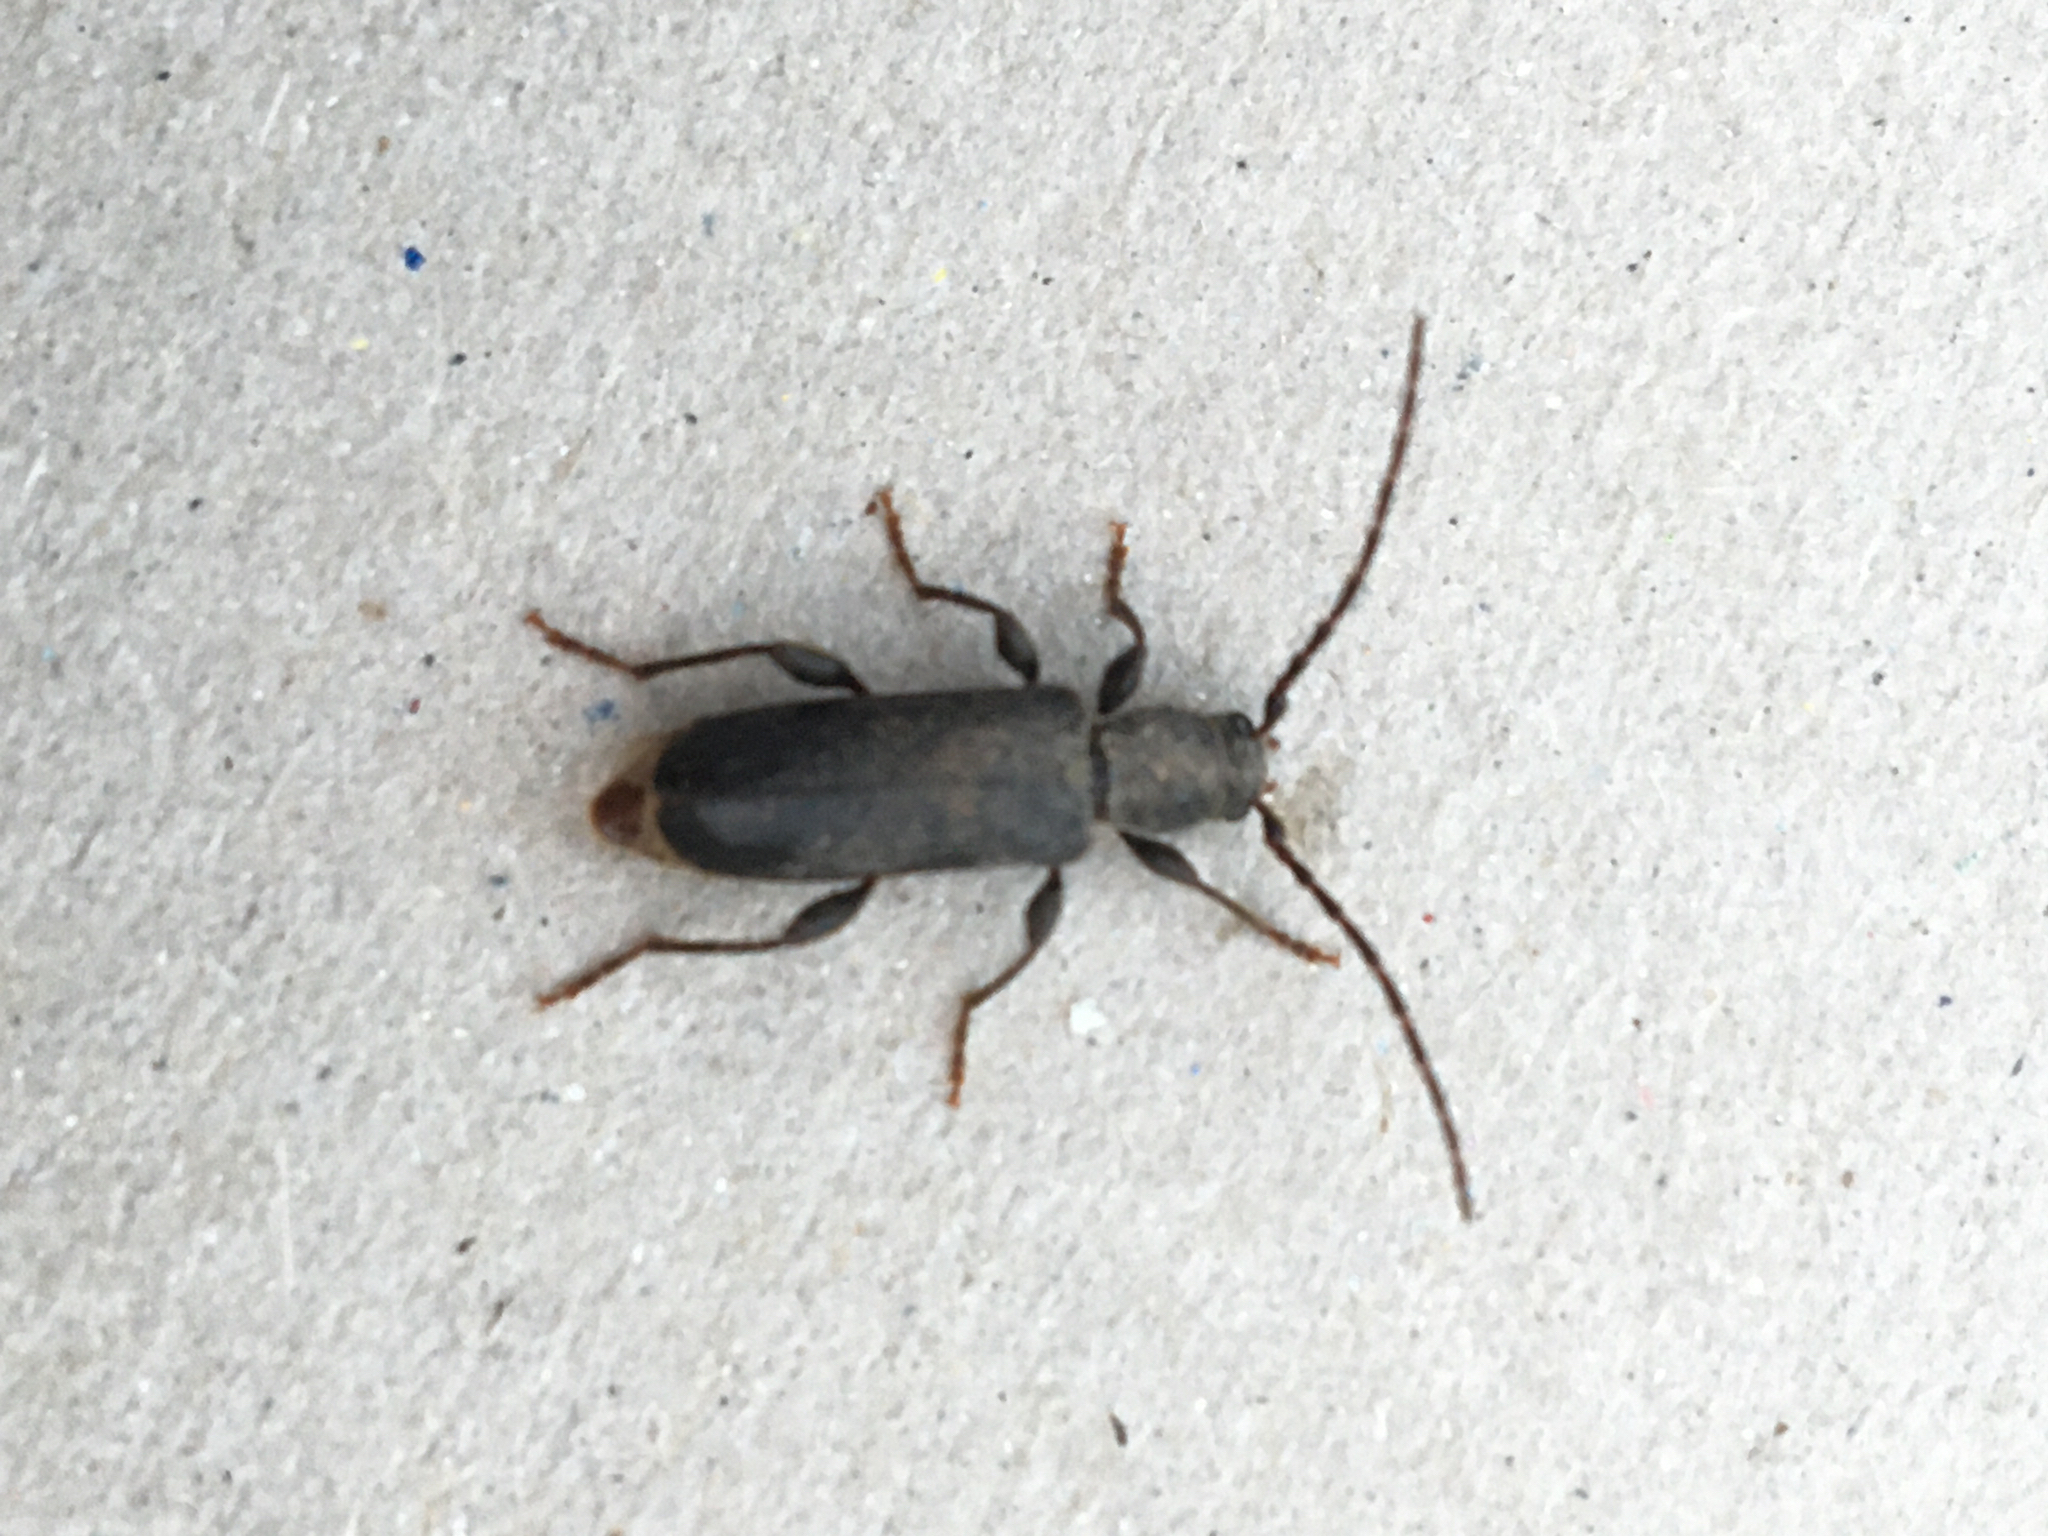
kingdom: Animalia
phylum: Arthropoda
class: Insecta
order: Coleoptera
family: Cerambycidae
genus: Phymatodes
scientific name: Phymatodes grandis
